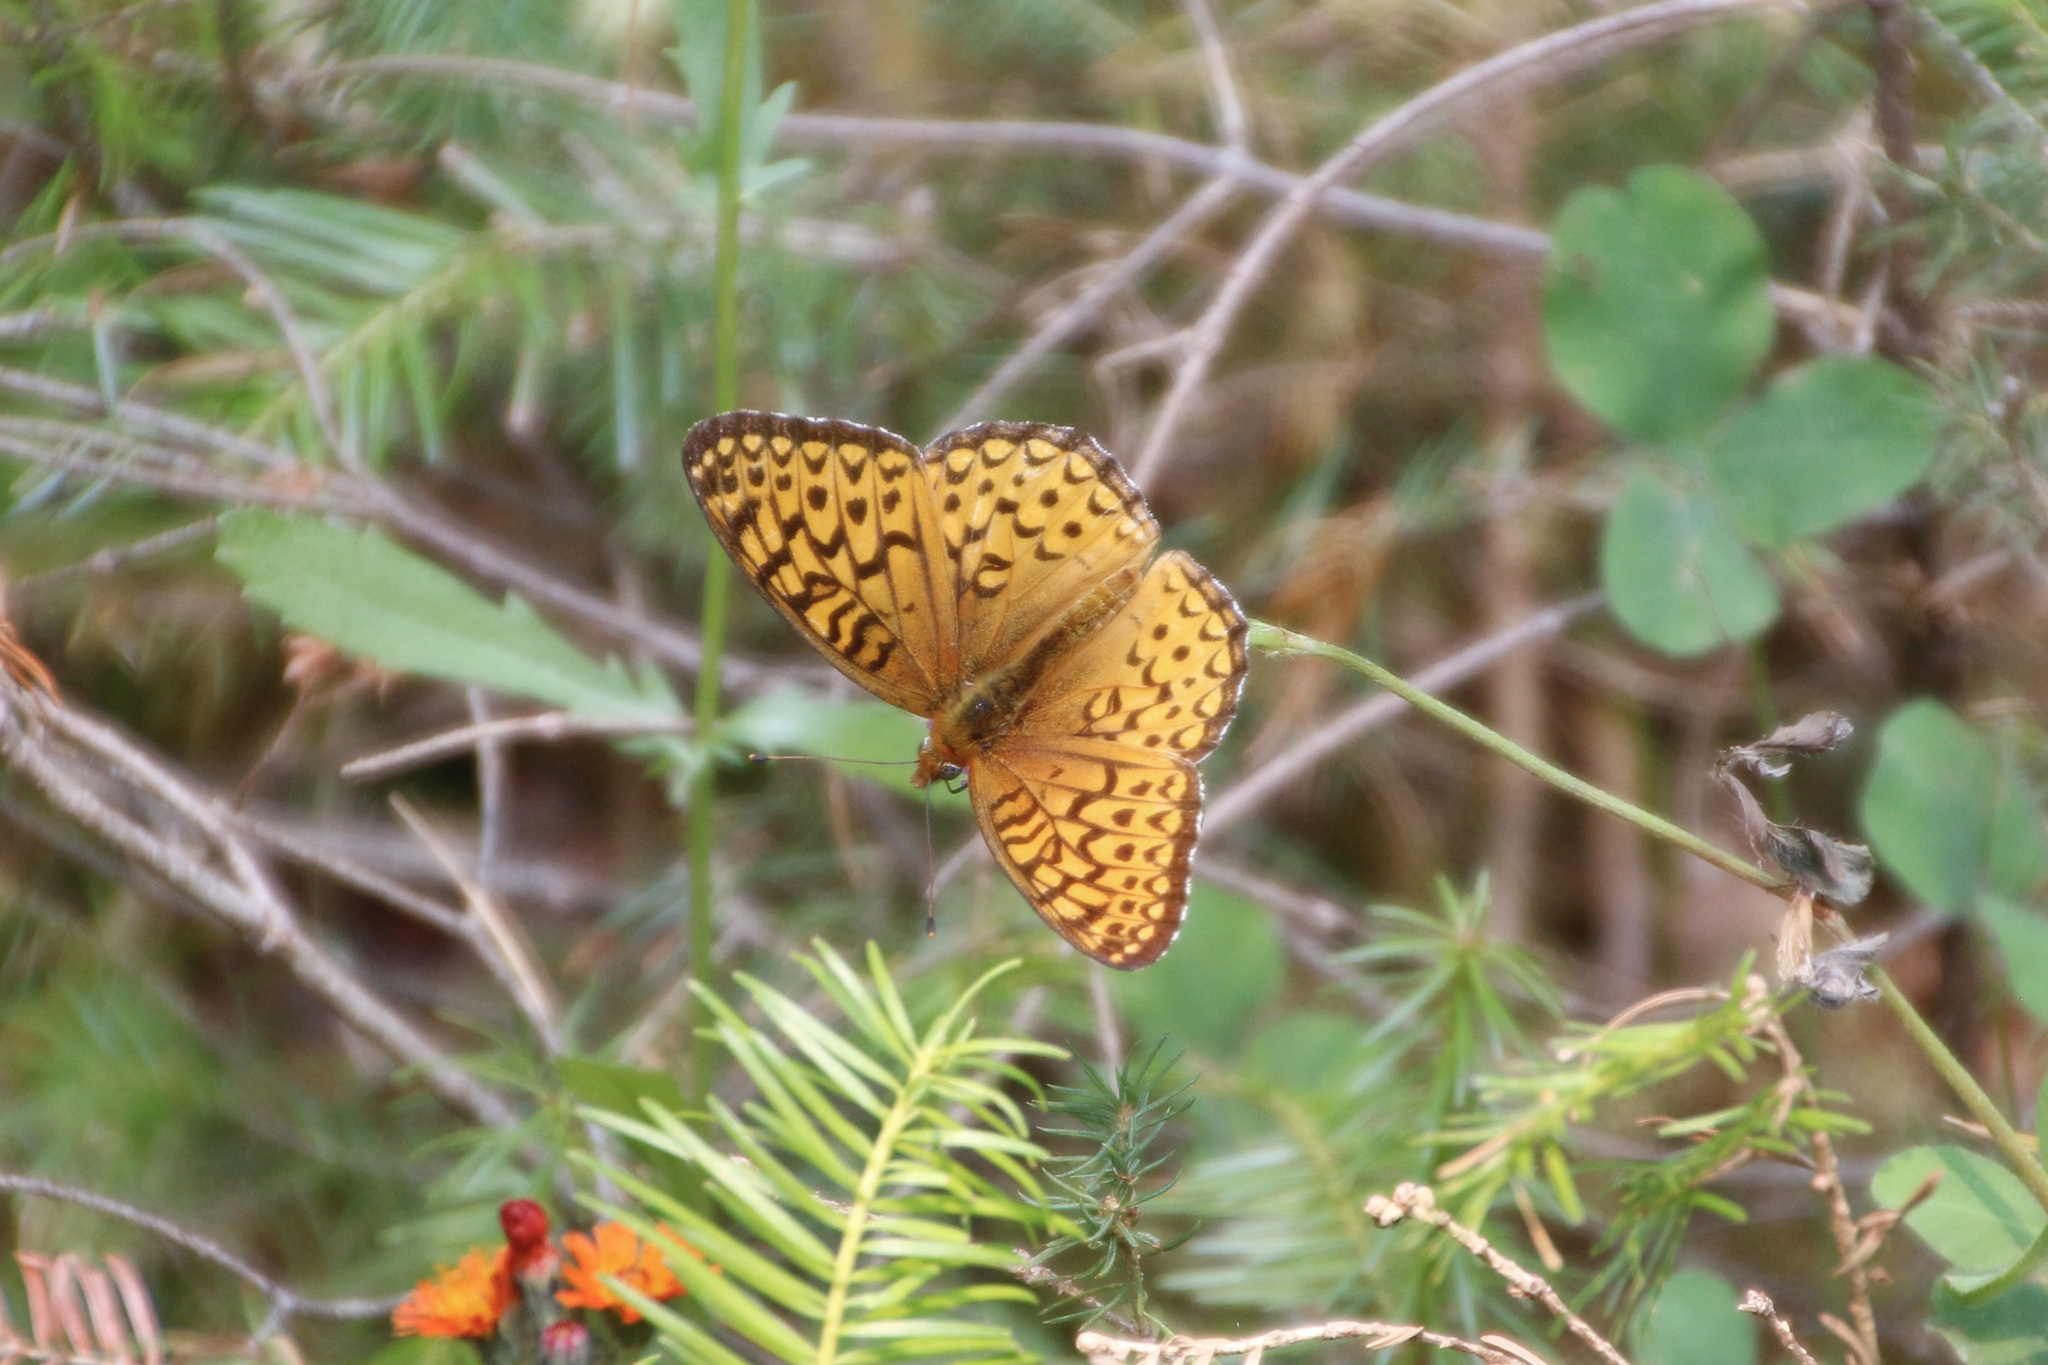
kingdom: Animalia
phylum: Arthropoda
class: Insecta
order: Lepidoptera
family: Nymphalidae
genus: Speyeria
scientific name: Speyeria atlantis
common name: Atlantis fritillary
